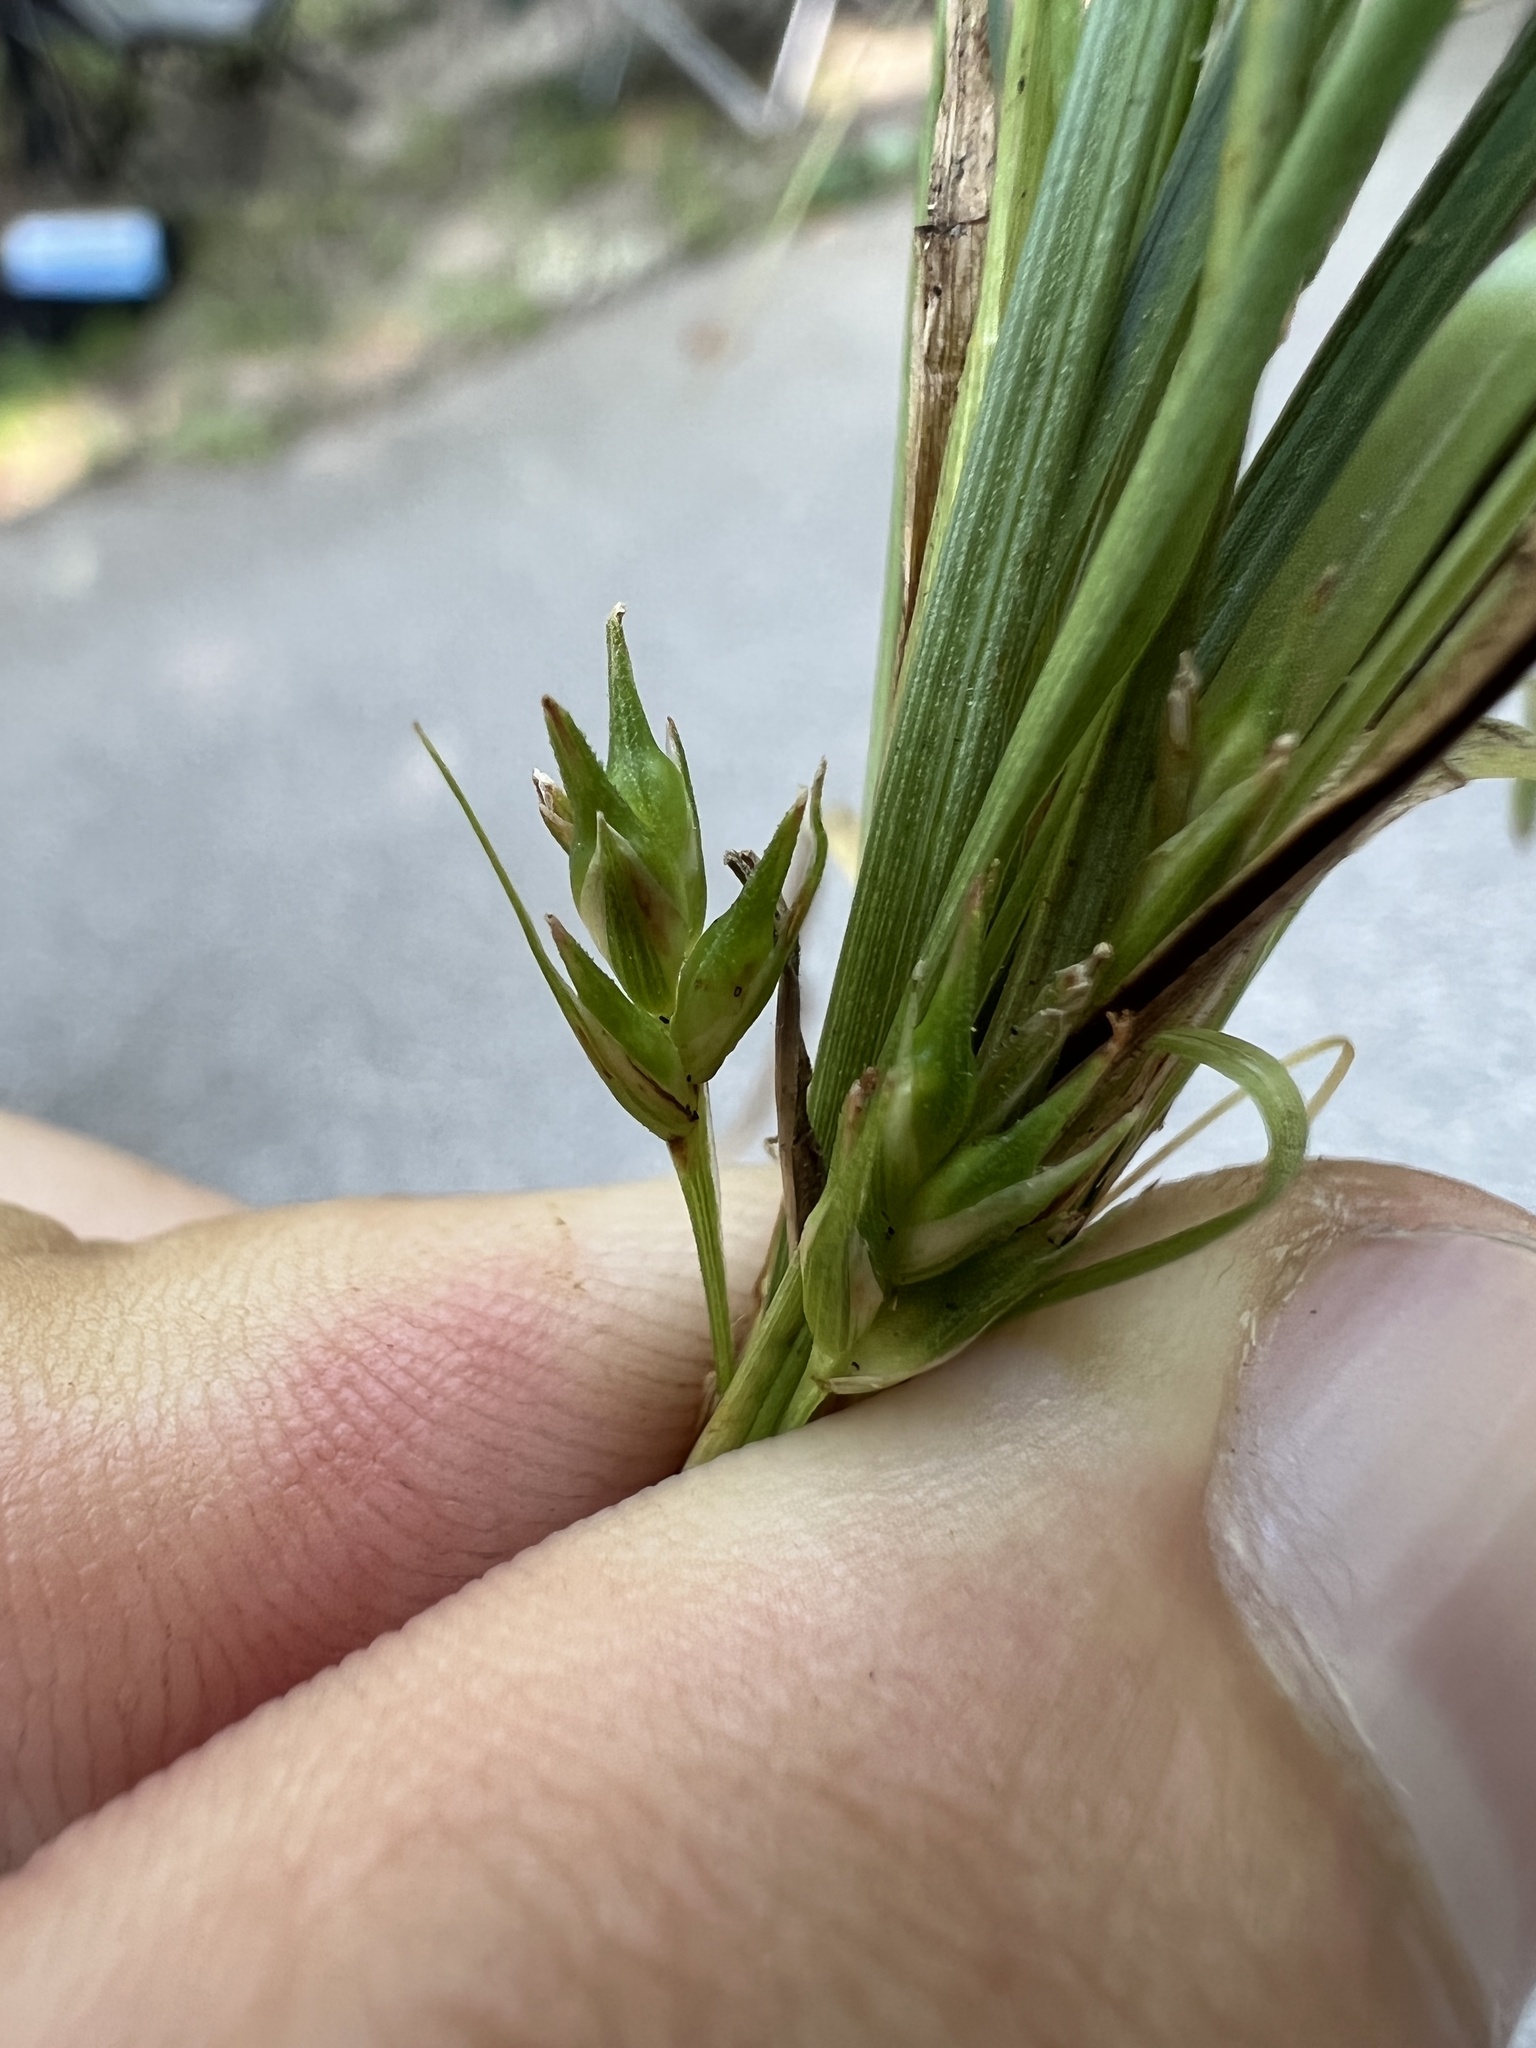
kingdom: Plantae
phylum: Tracheophyta
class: Liliopsida
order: Poales
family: Cyperaceae
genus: Carex
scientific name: Carex willdenowii
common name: Willdenow's sedge
